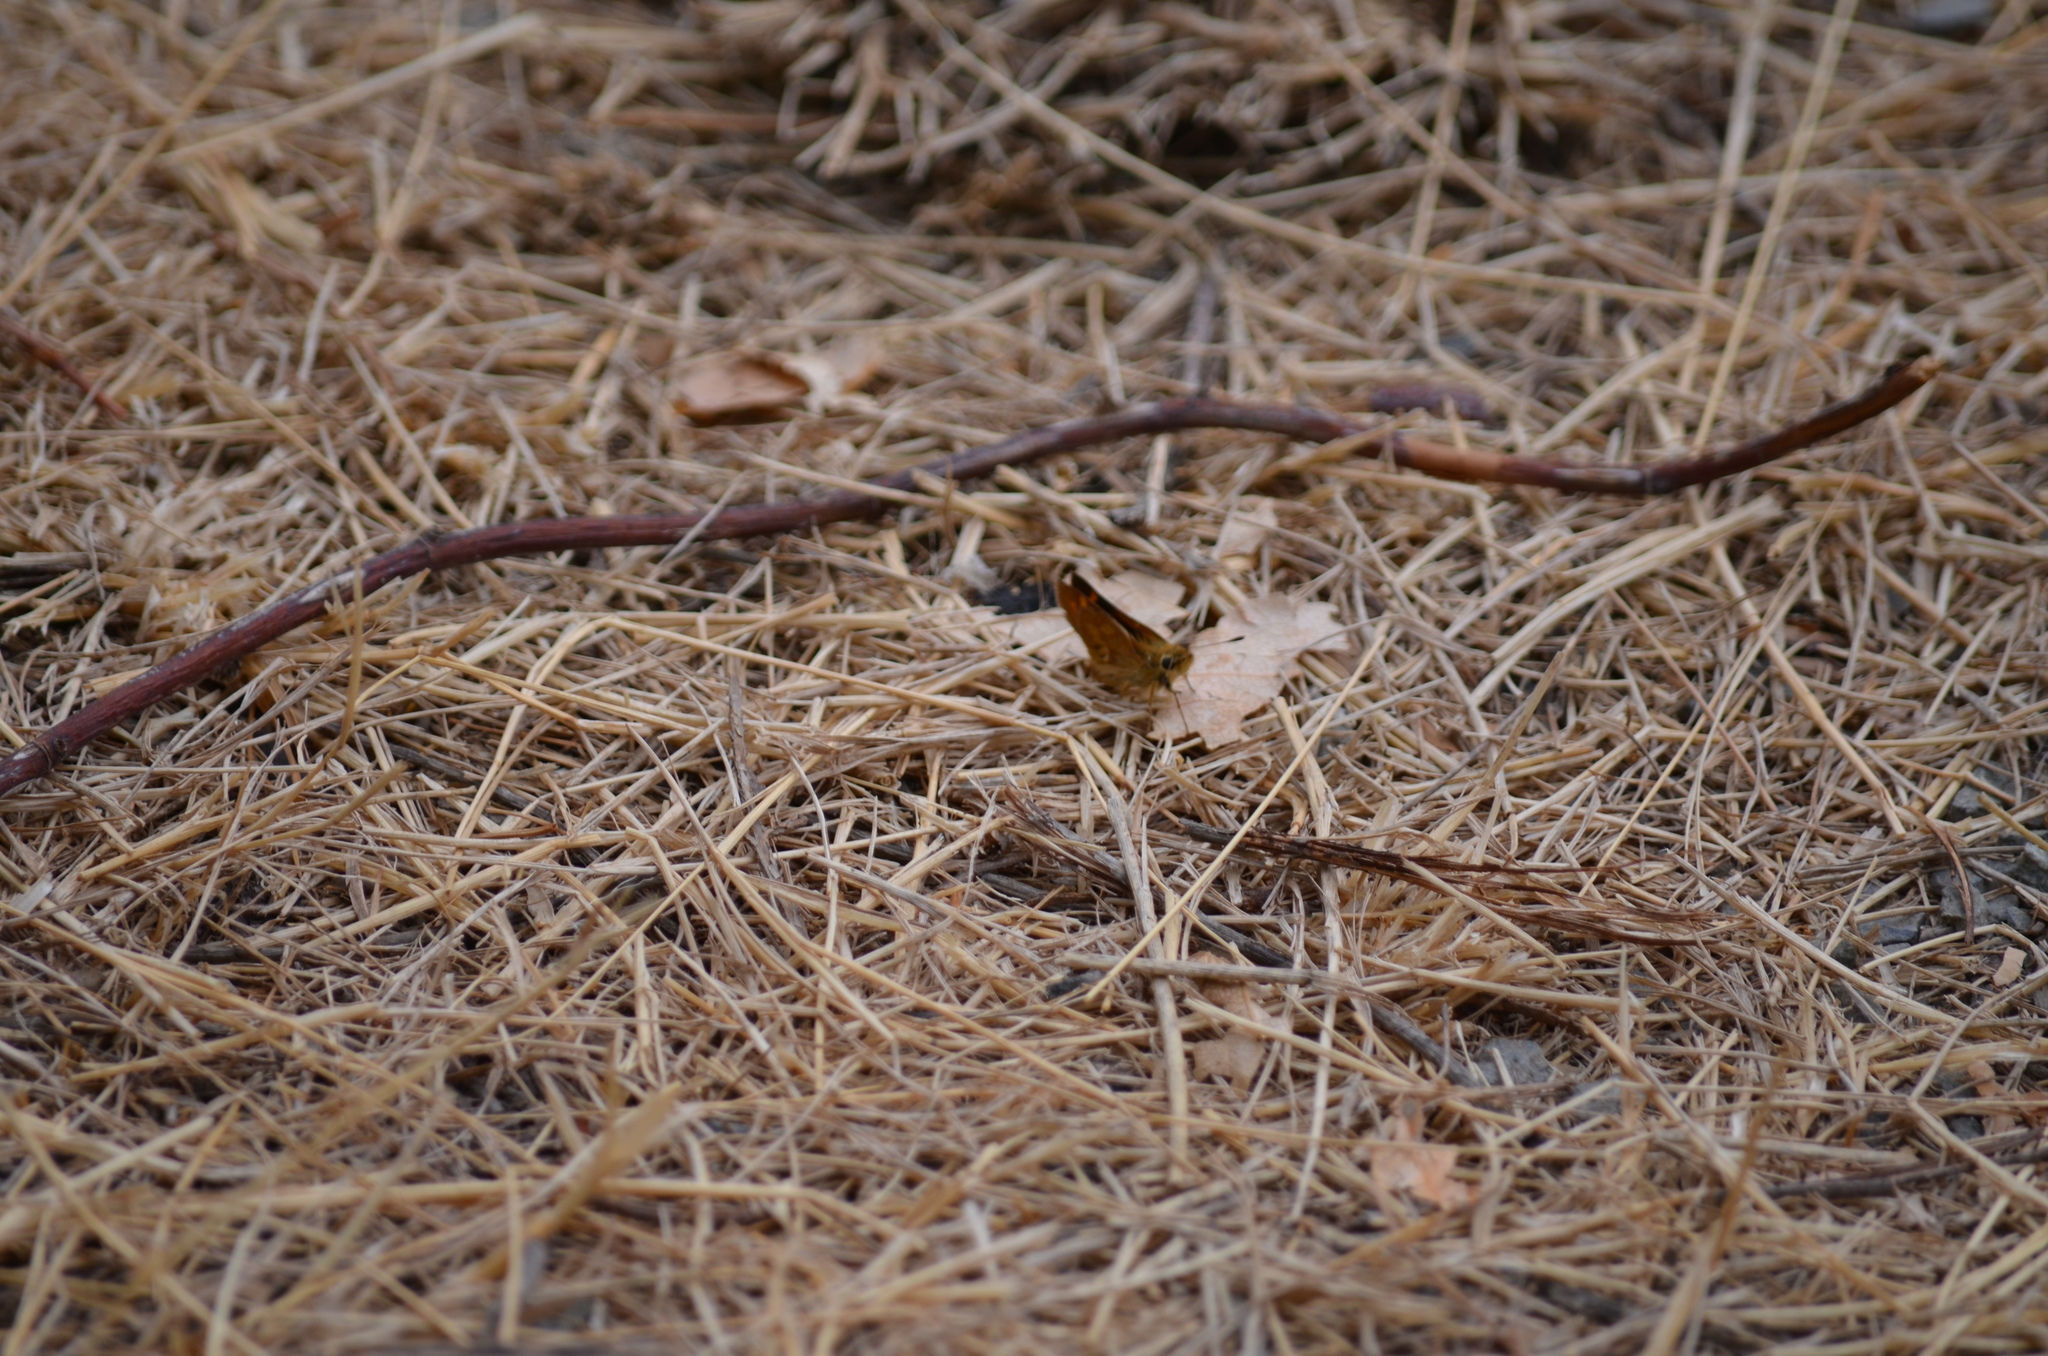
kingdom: Animalia
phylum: Arthropoda
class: Insecta
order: Lepidoptera
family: Hesperiidae
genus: Ochlodes
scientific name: Ochlodes sylvanoides
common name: Woodland skipper
